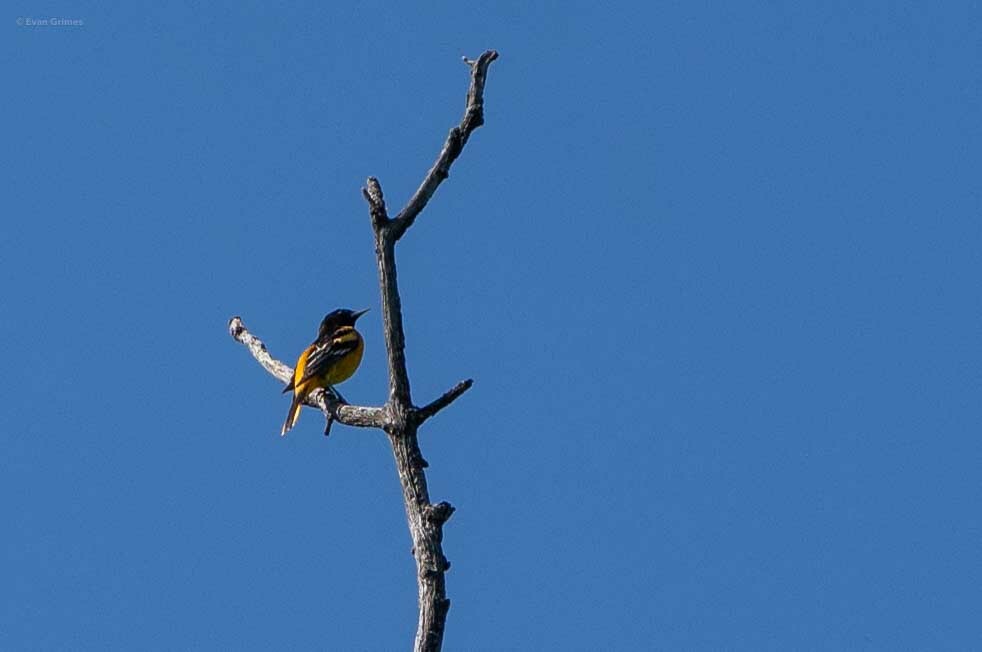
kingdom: Animalia
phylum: Chordata
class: Aves
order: Passeriformes
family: Icteridae
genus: Icterus
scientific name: Icterus galbula
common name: Baltimore oriole
